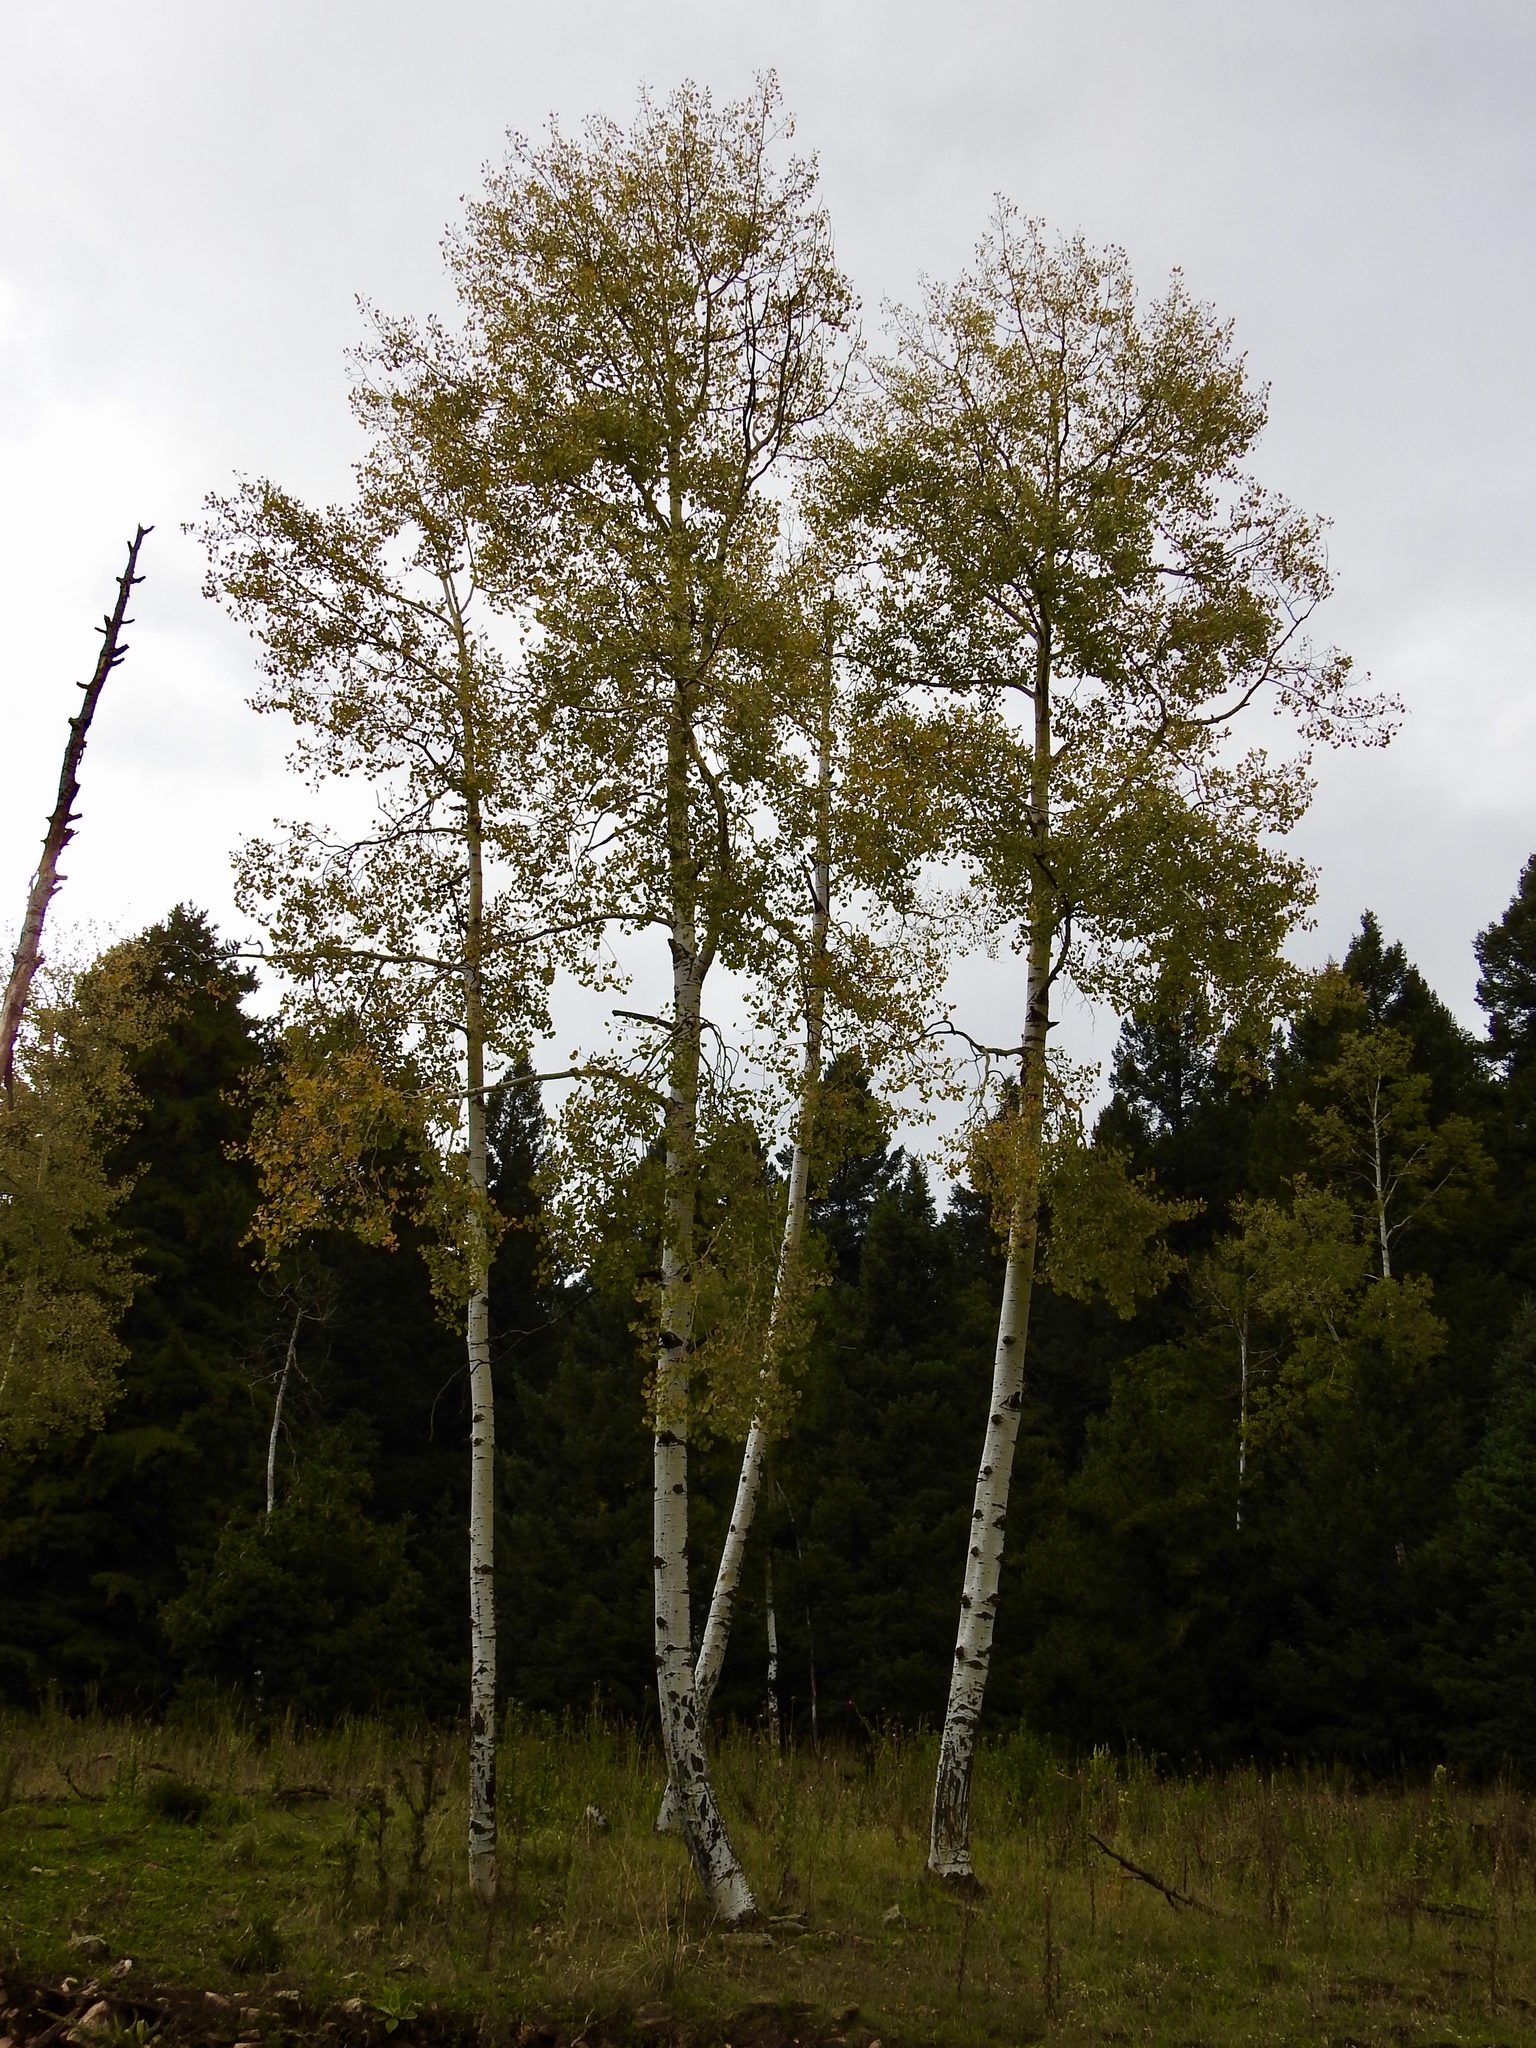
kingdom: Plantae
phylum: Tracheophyta
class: Magnoliopsida
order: Malpighiales
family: Salicaceae
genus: Populus
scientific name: Populus tremuloides
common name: Quaking aspen
